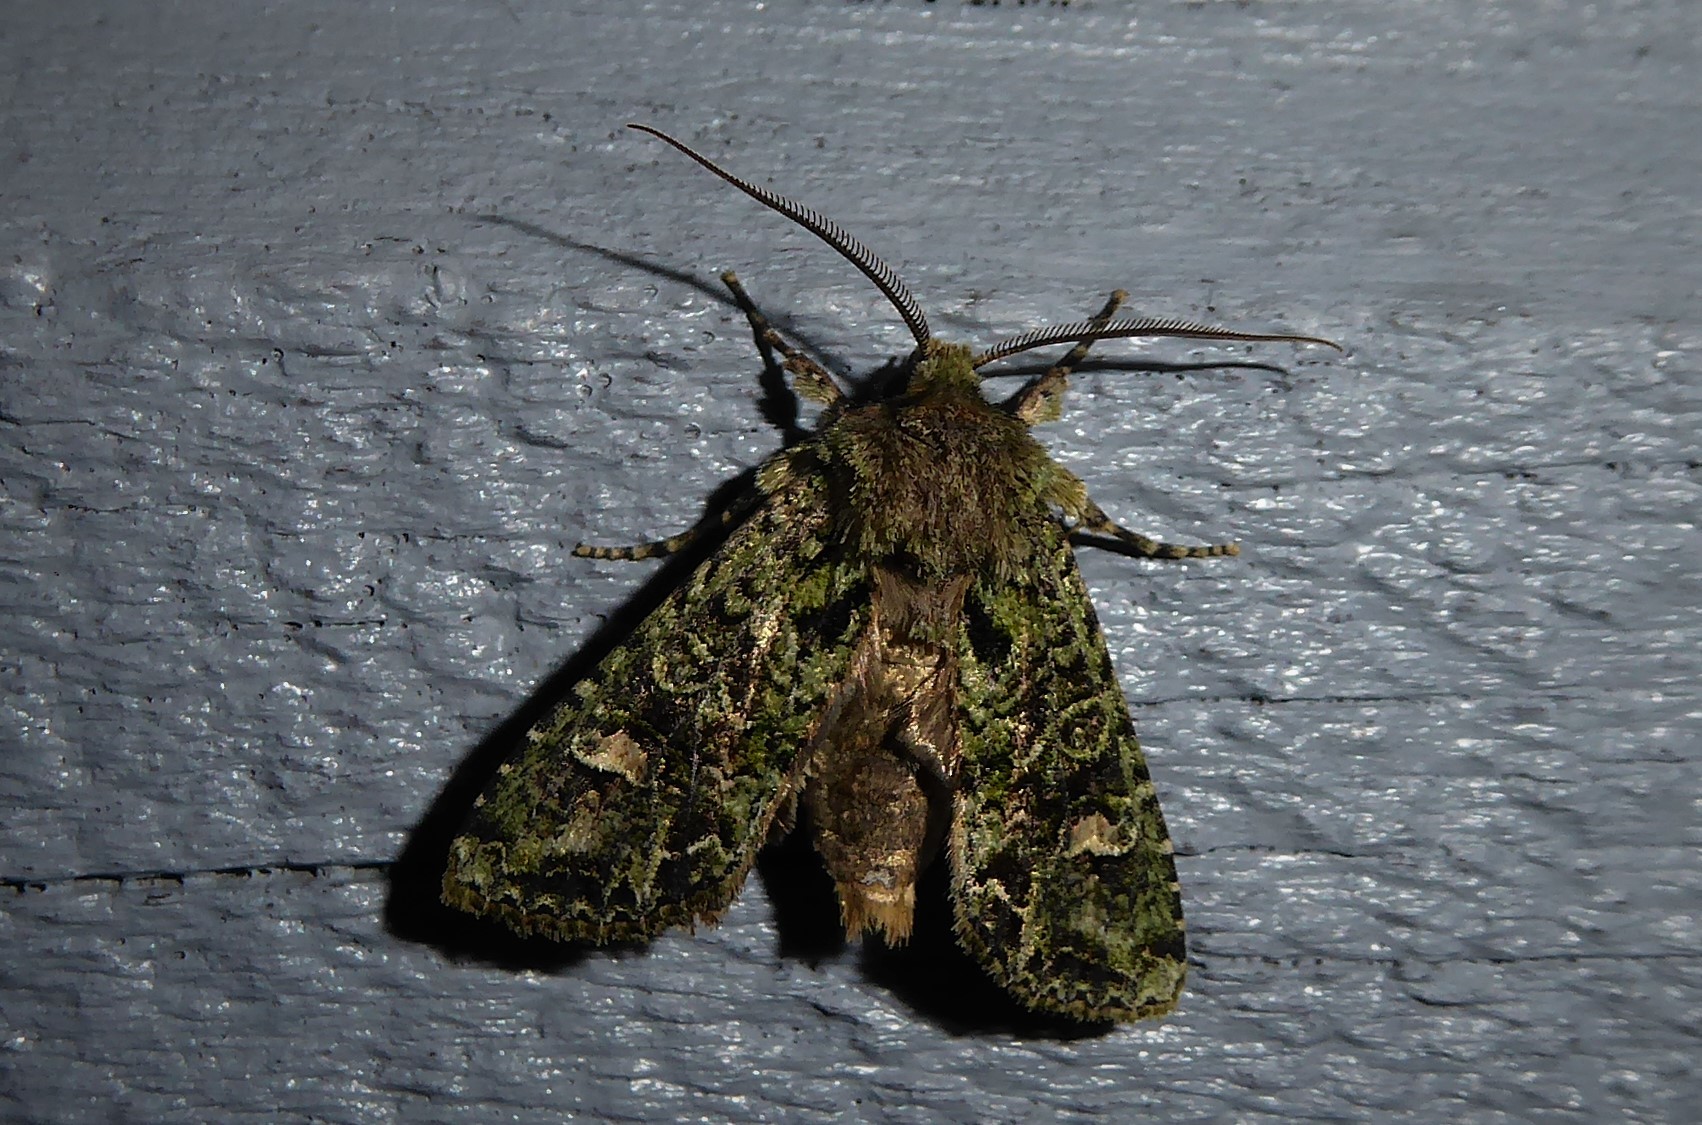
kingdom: Animalia
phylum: Arthropoda
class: Insecta
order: Lepidoptera
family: Noctuidae
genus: Ichneutica
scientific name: Ichneutica
